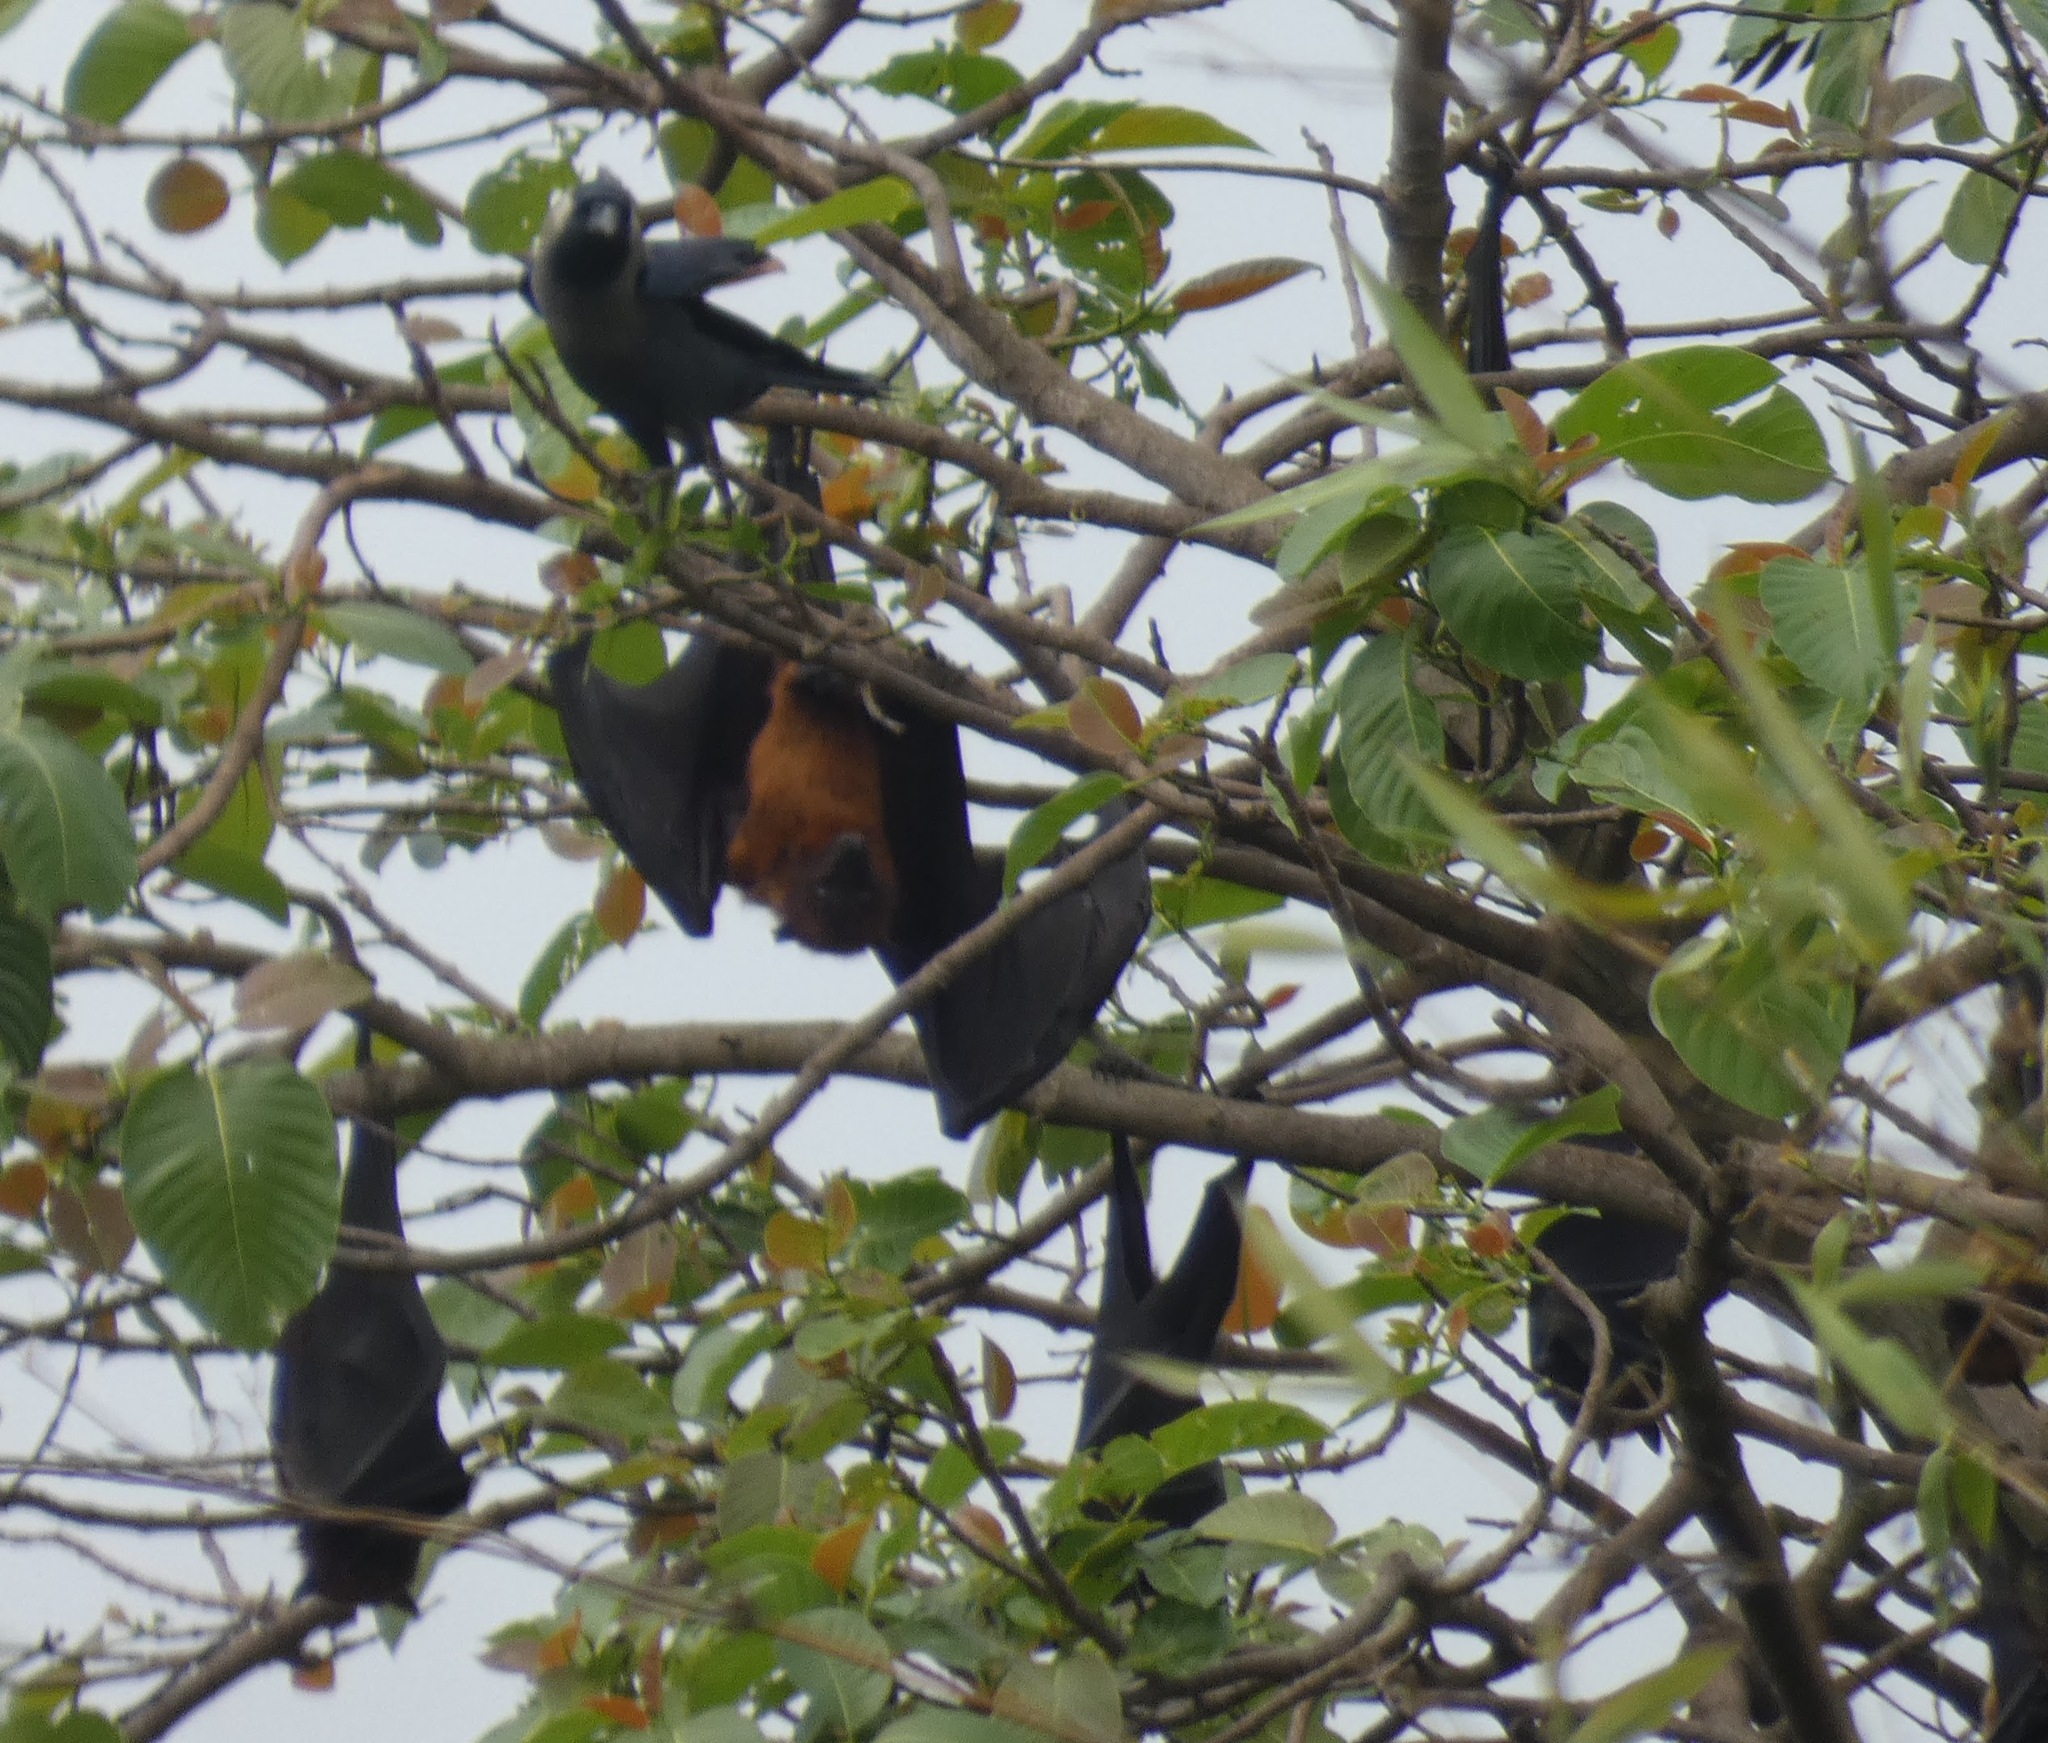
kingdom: Animalia
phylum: Chordata
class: Mammalia
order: Chiroptera
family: Pteropodidae
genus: Pteropus
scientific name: Pteropus vampyrus
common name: Large flying fox
